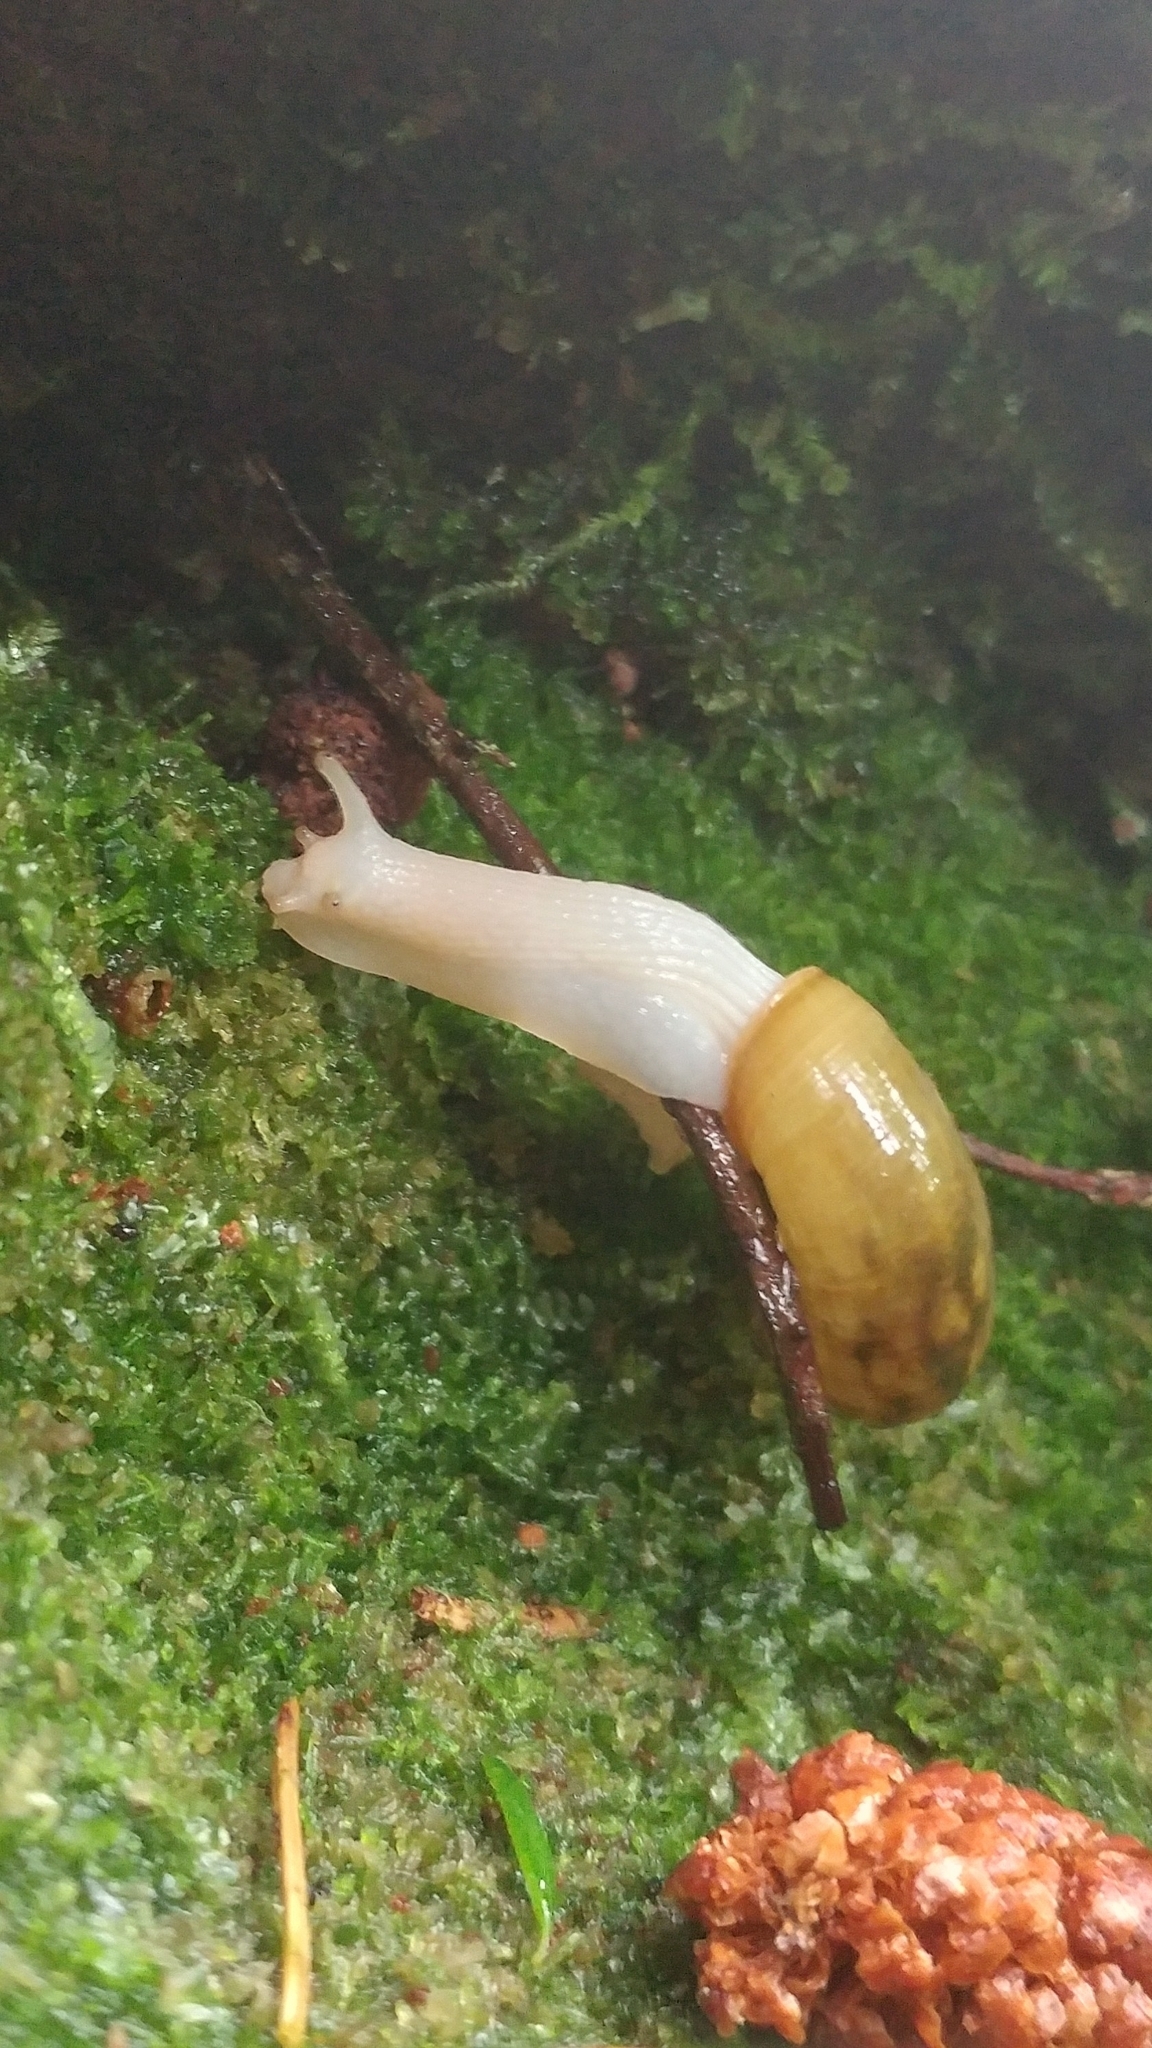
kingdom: Animalia
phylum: Mollusca
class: Gastropoda
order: Stylommatophora
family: Haplotrematidae
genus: Haplotrema
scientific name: Haplotrema vancouverense
